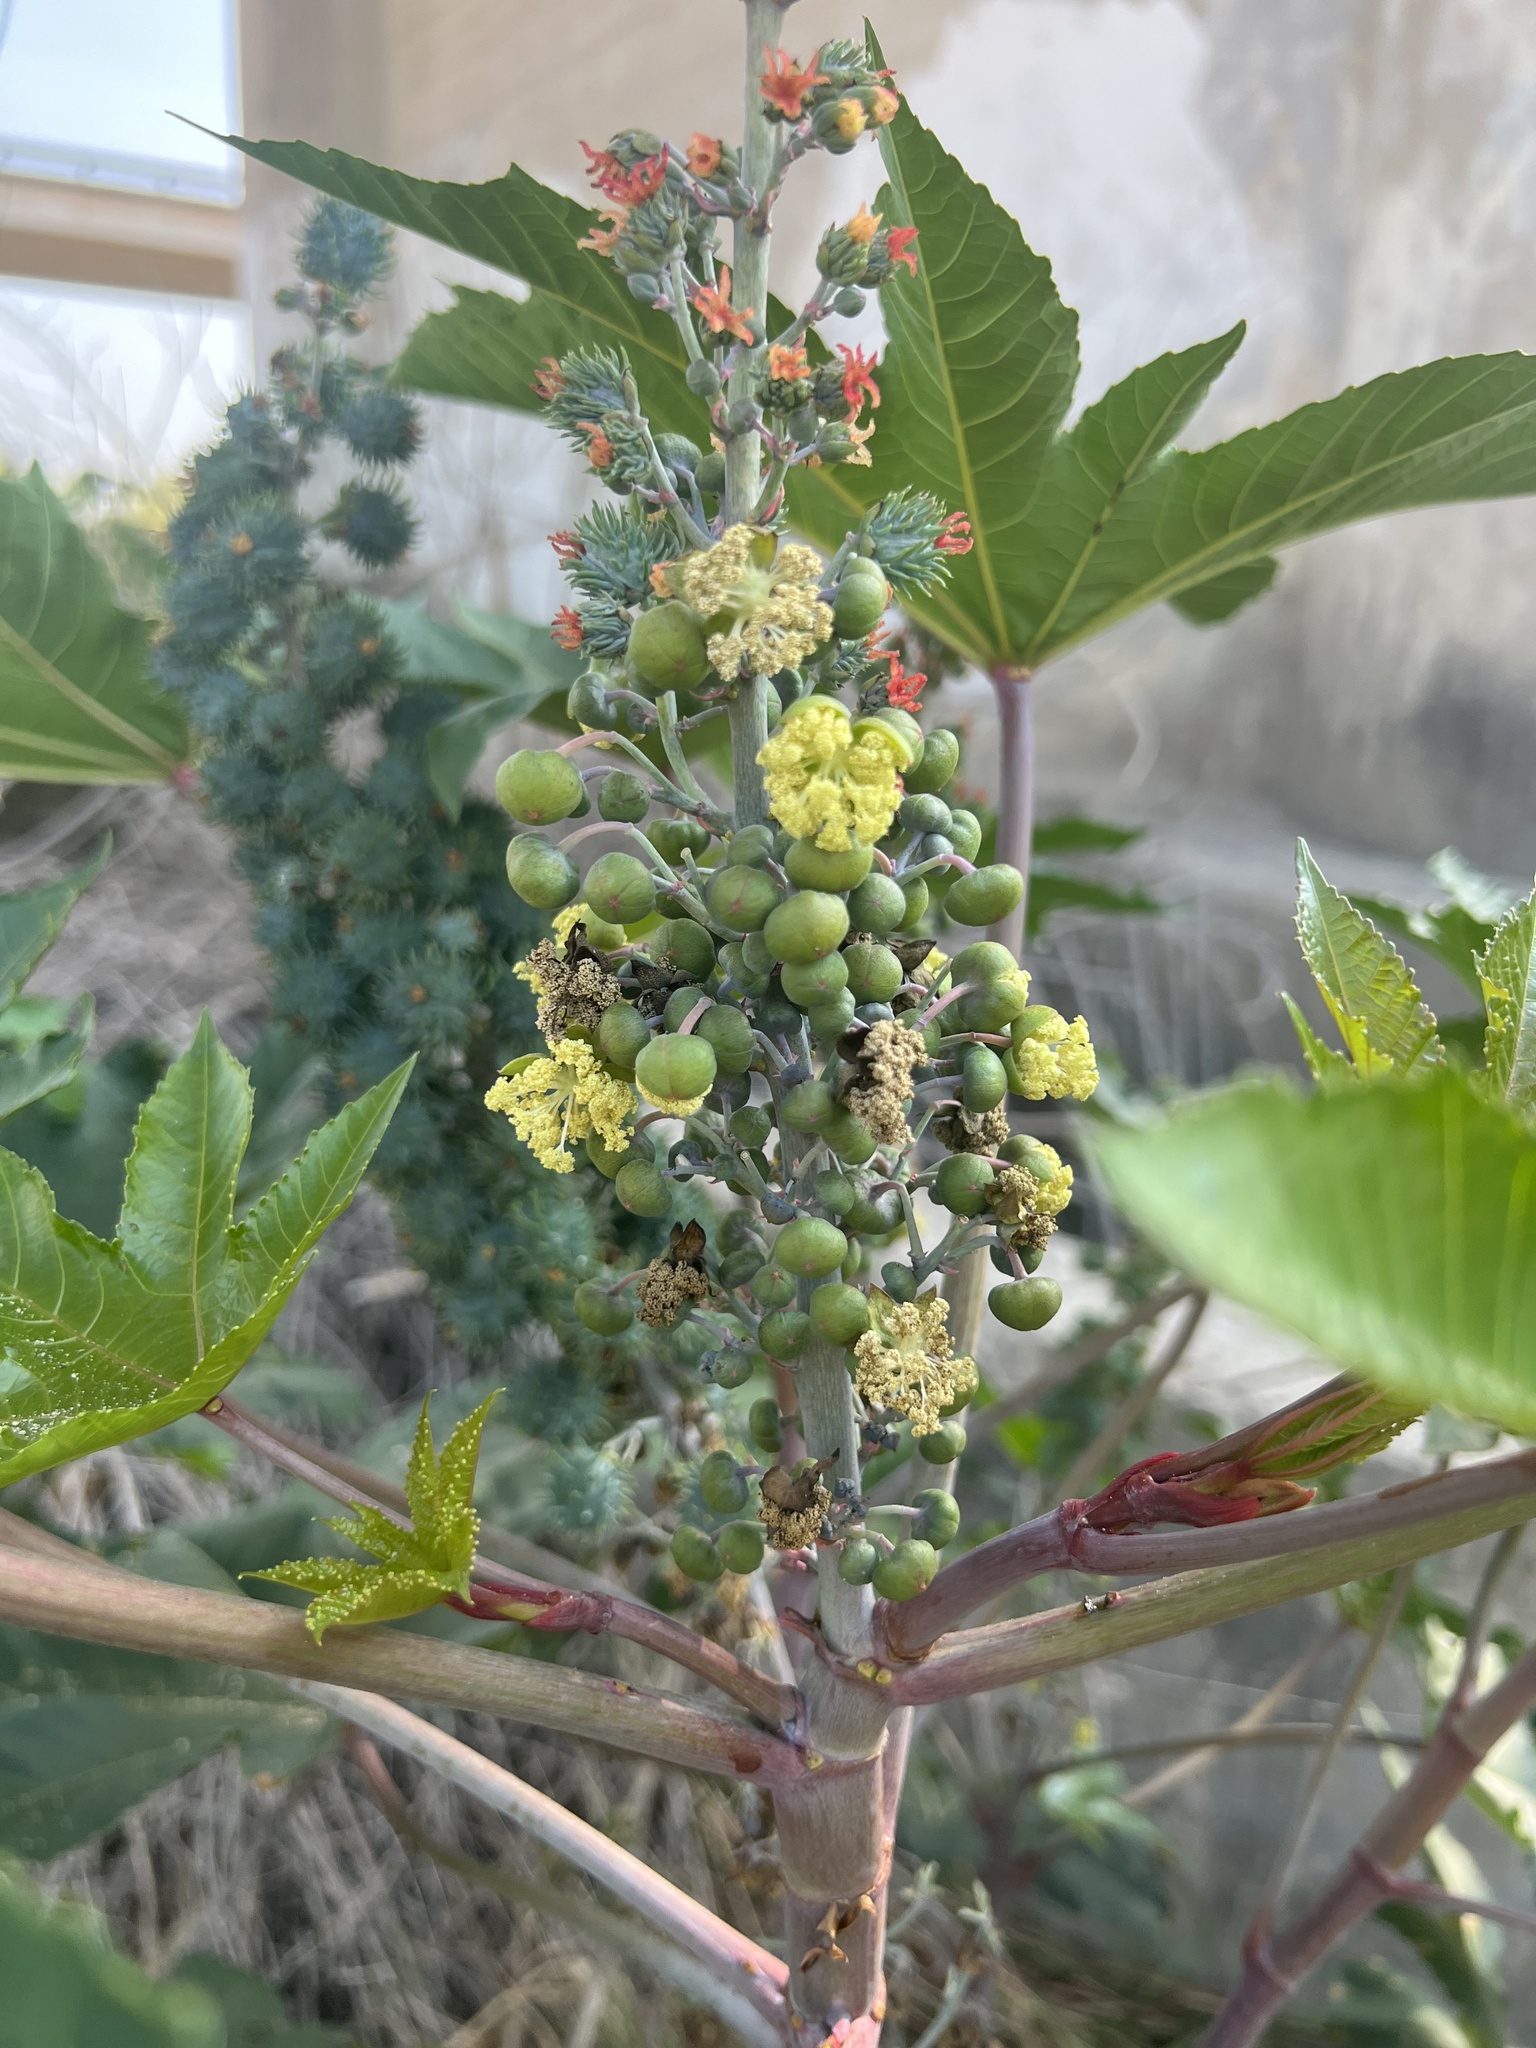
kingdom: Plantae
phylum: Tracheophyta
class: Magnoliopsida
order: Malpighiales
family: Euphorbiaceae
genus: Ricinus
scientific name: Ricinus communis
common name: Castor-oil-plant
